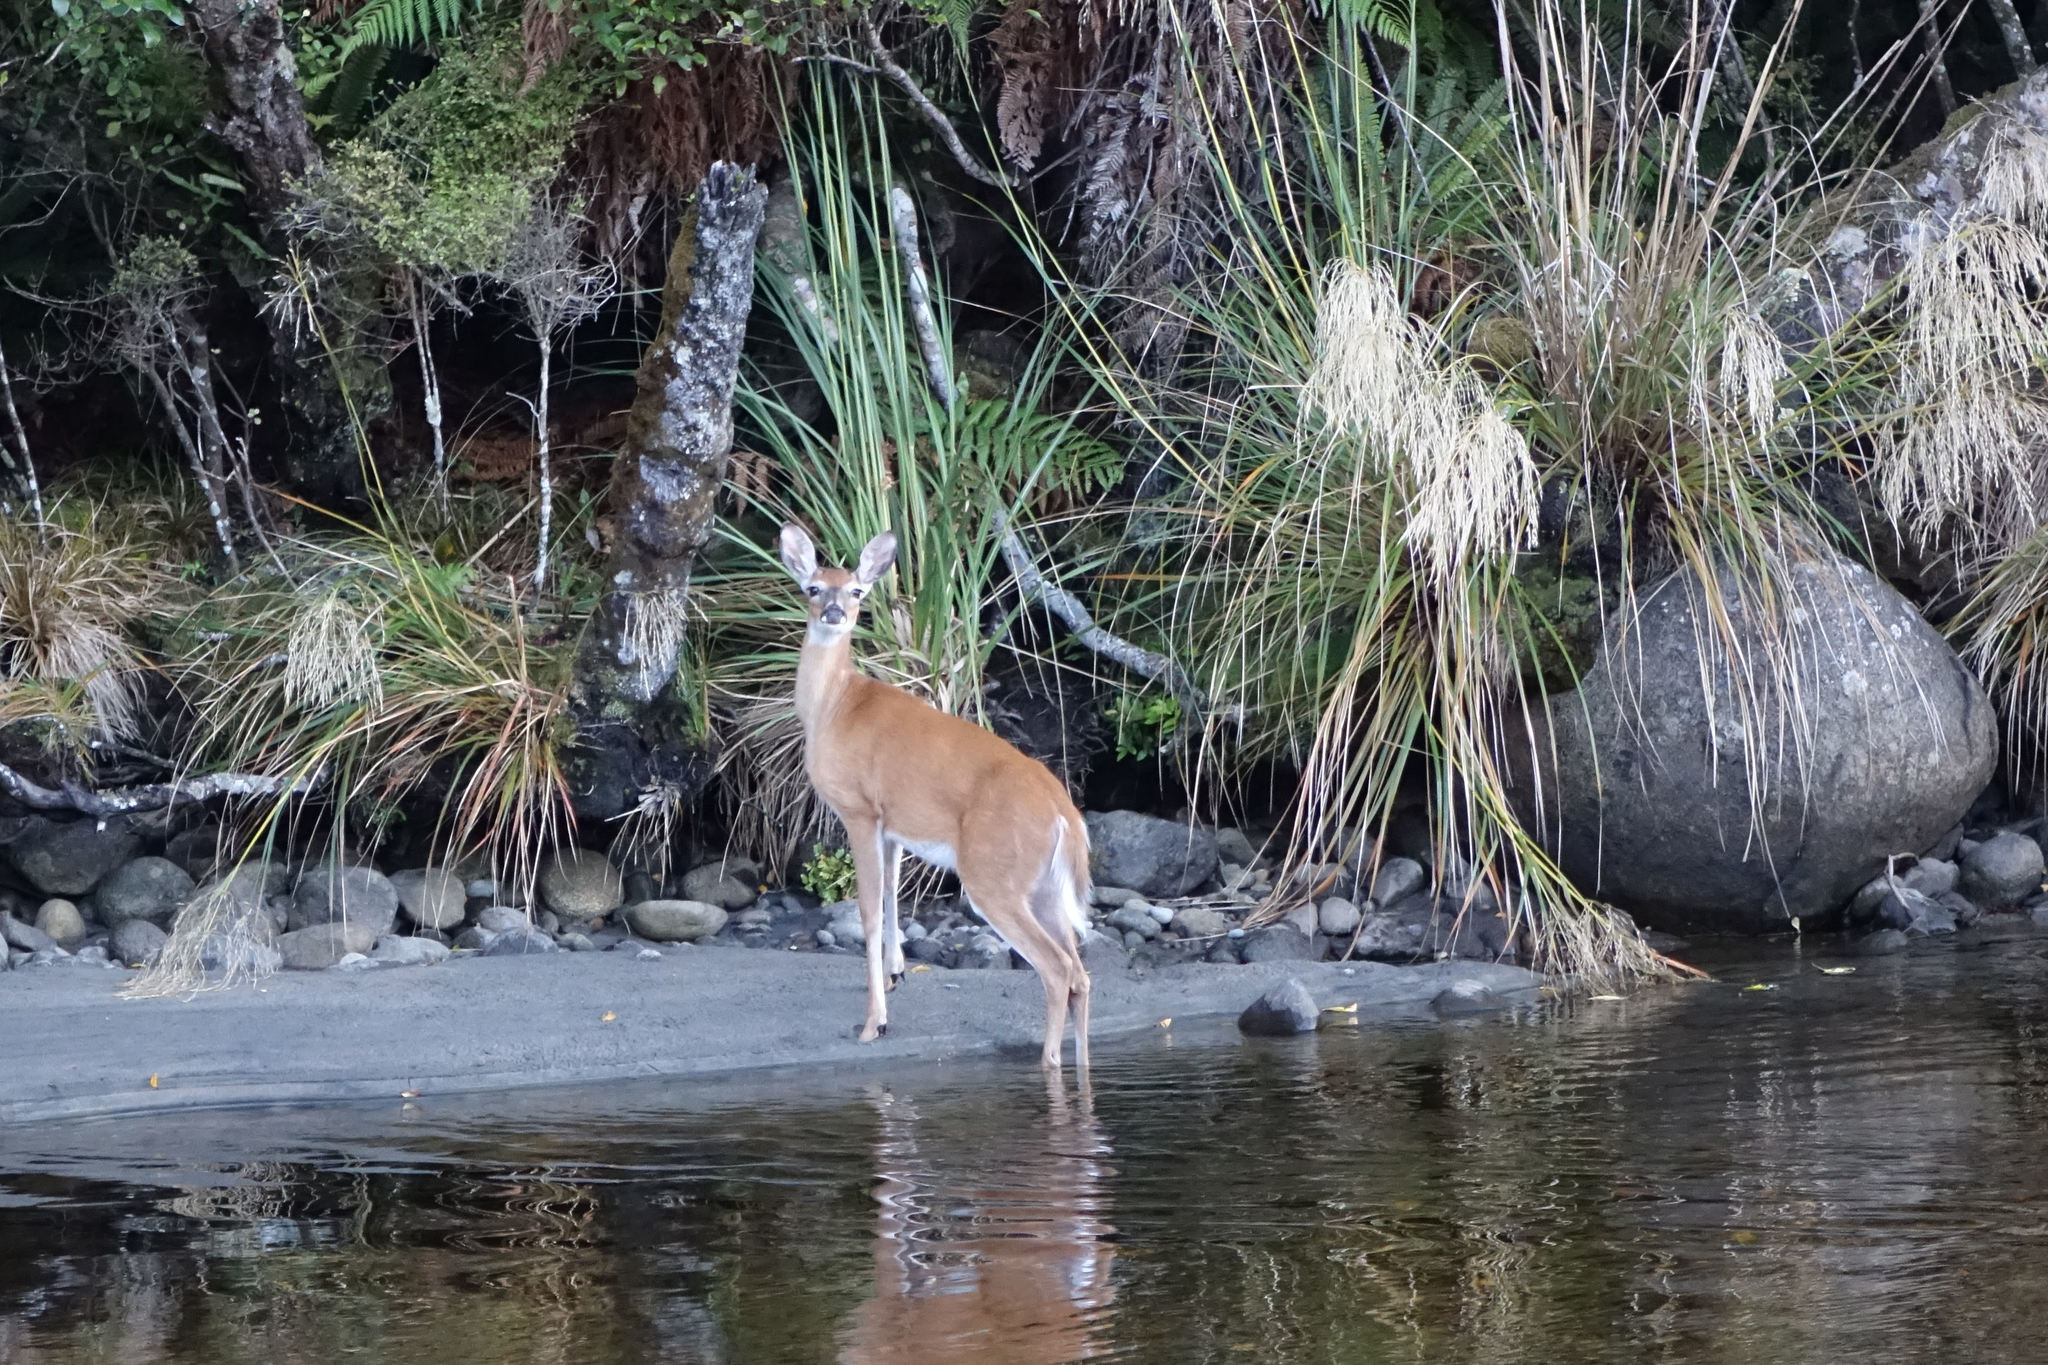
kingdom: Animalia
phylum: Chordata
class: Mammalia
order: Artiodactyla
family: Cervidae
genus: Odocoileus
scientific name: Odocoileus virginianus
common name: White-tailed deer
